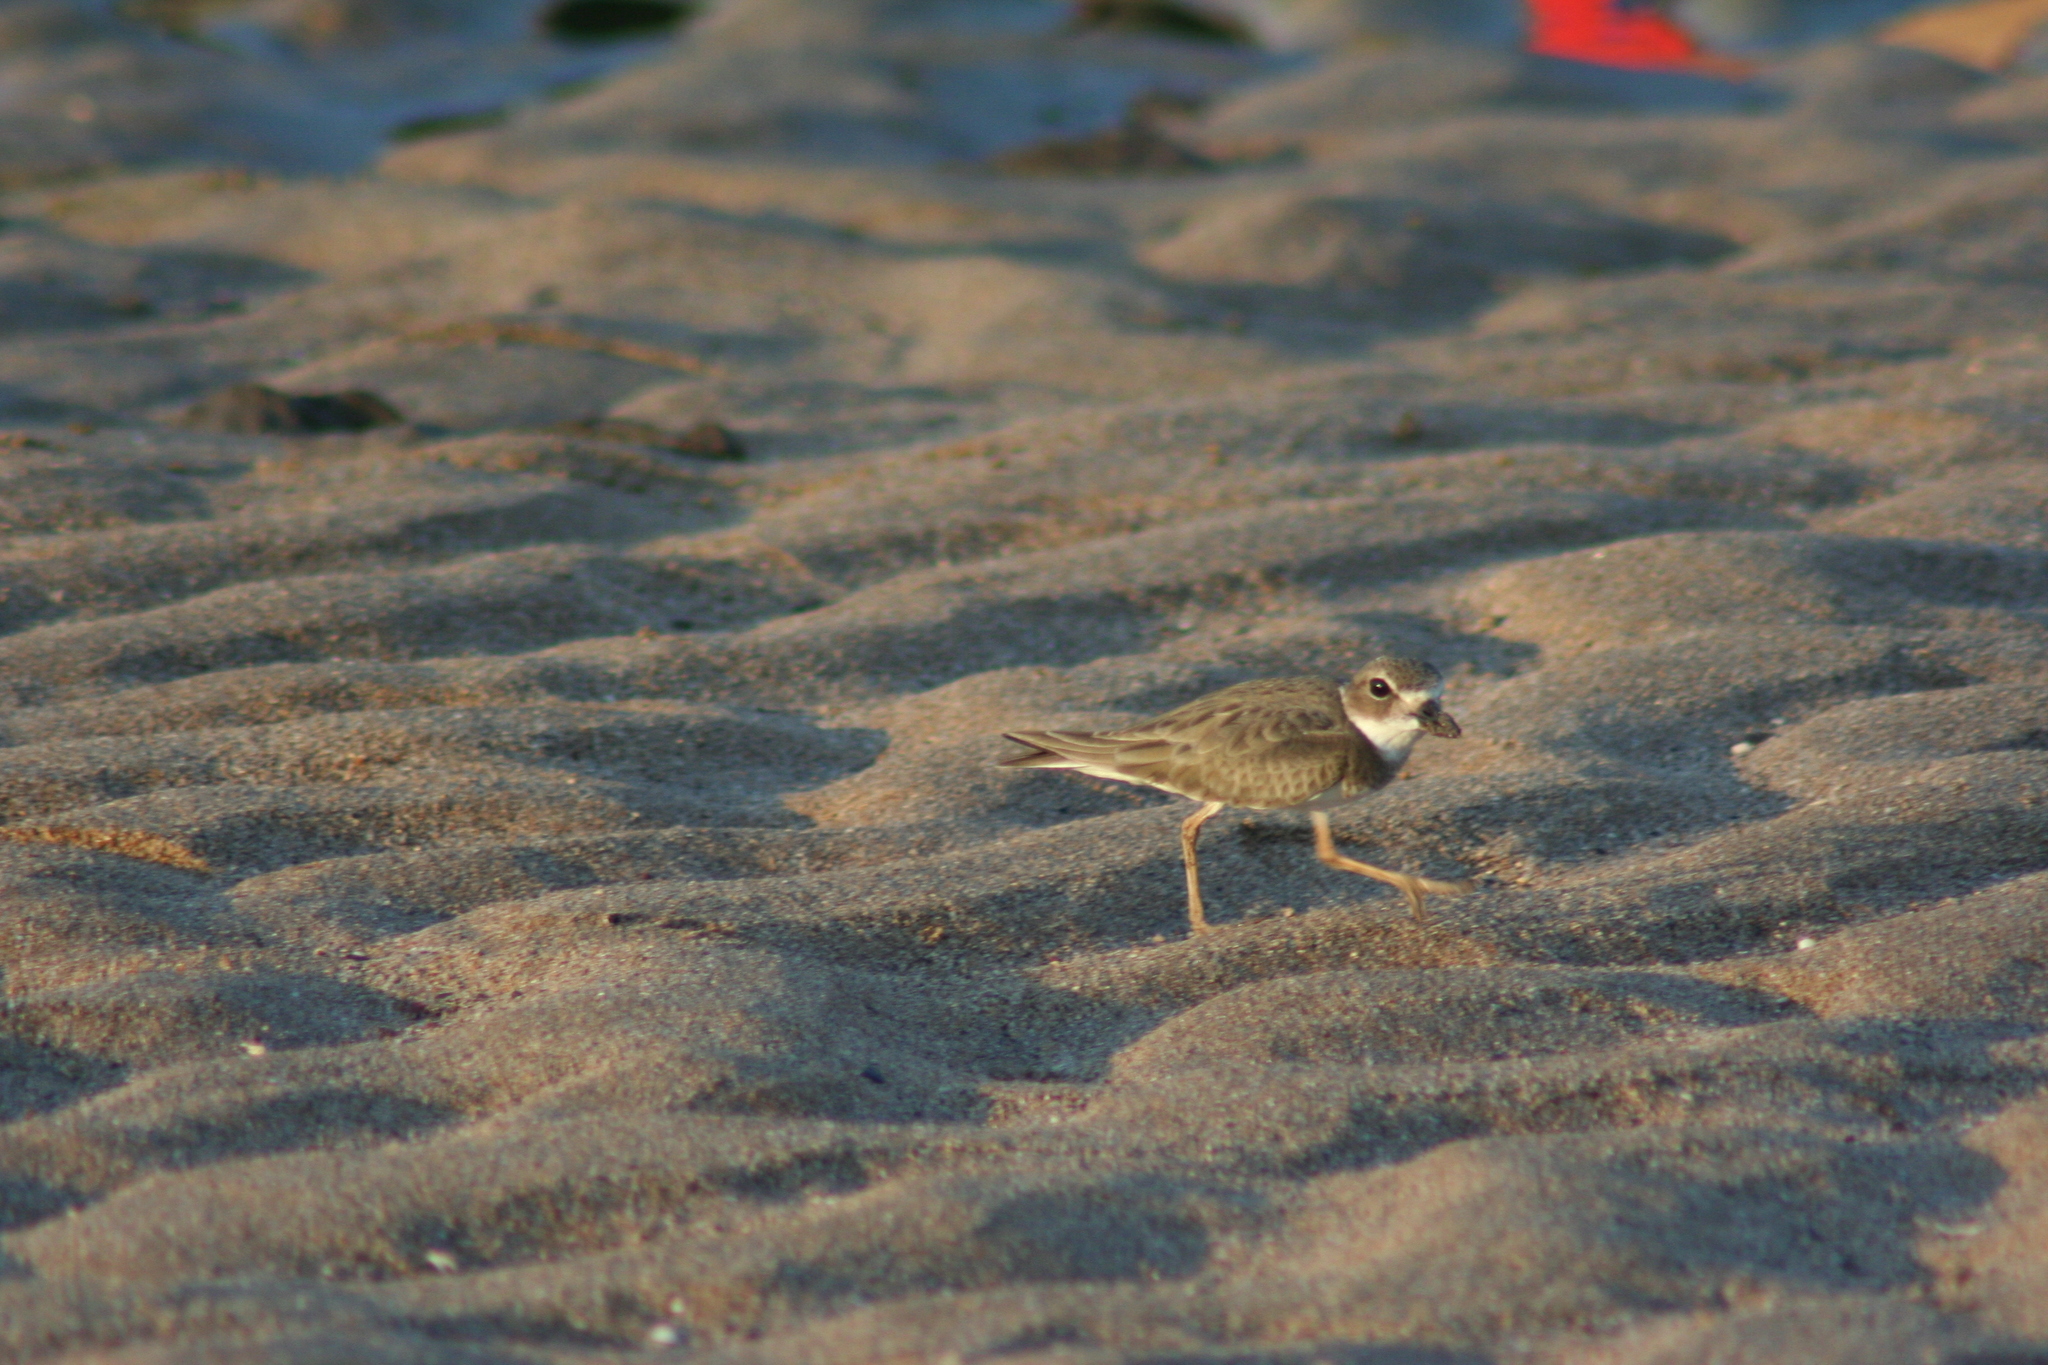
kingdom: Animalia
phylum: Chordata
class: Aves
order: Charadriiformes
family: Charadriidae
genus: Anarhynchus
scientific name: Anarhynchus
